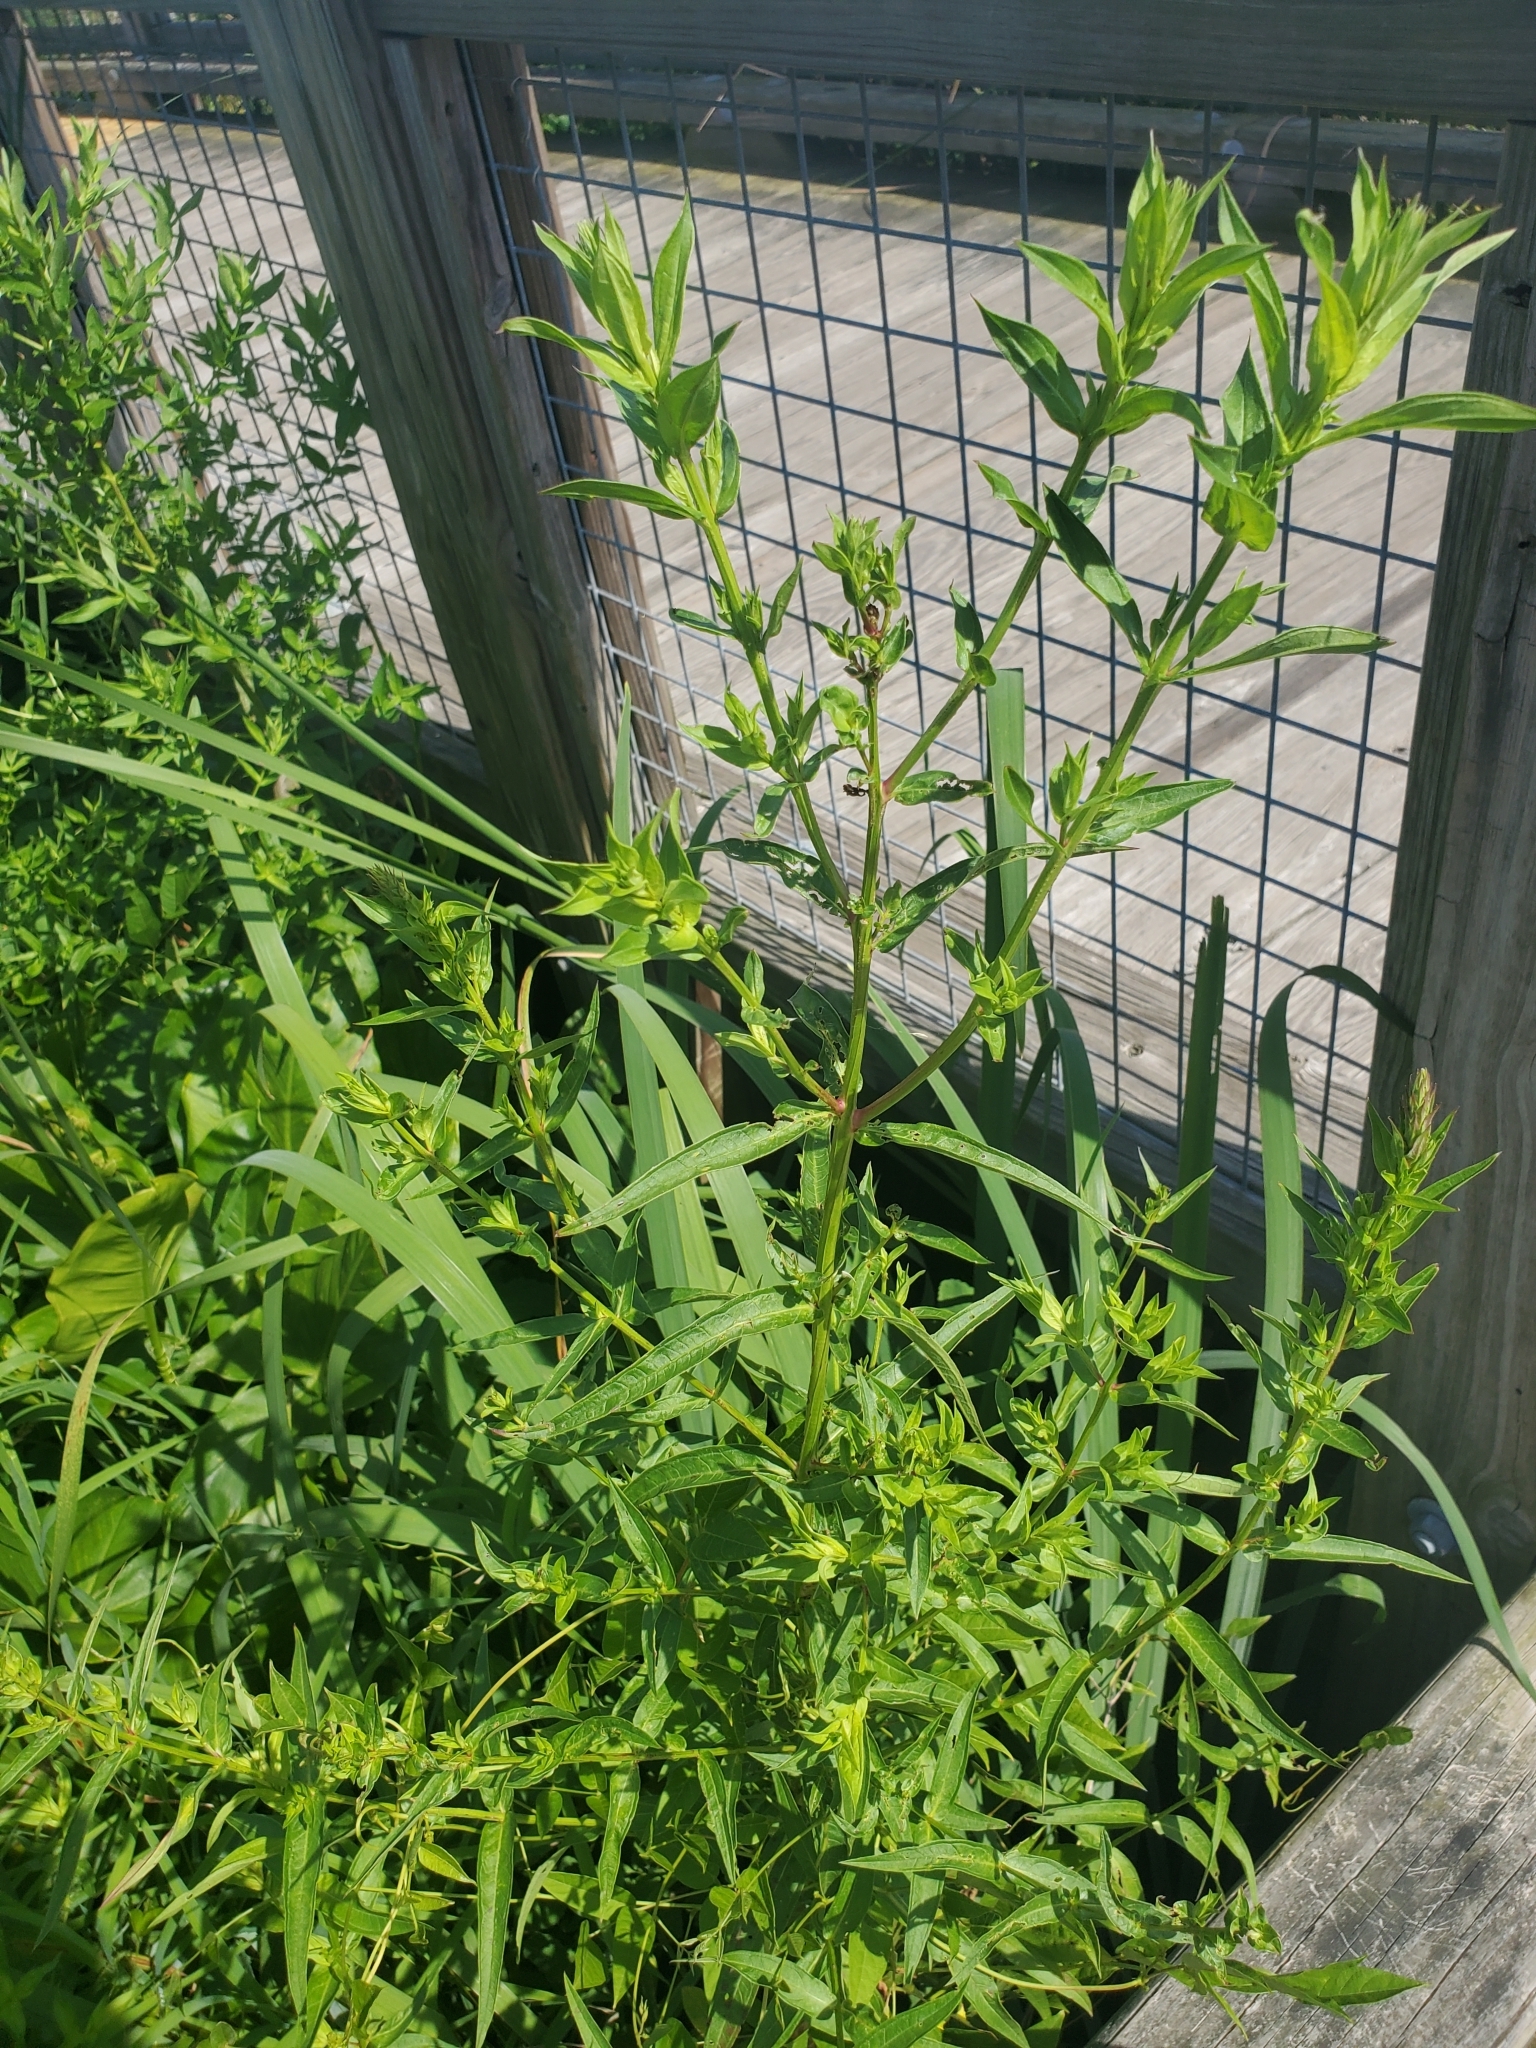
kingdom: Plantae
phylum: Tracheophyta
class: Magnoliopsida
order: Myrtales
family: Lythraceae
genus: Lythrum
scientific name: Lythrum salicaria
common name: Purple loosestrife
